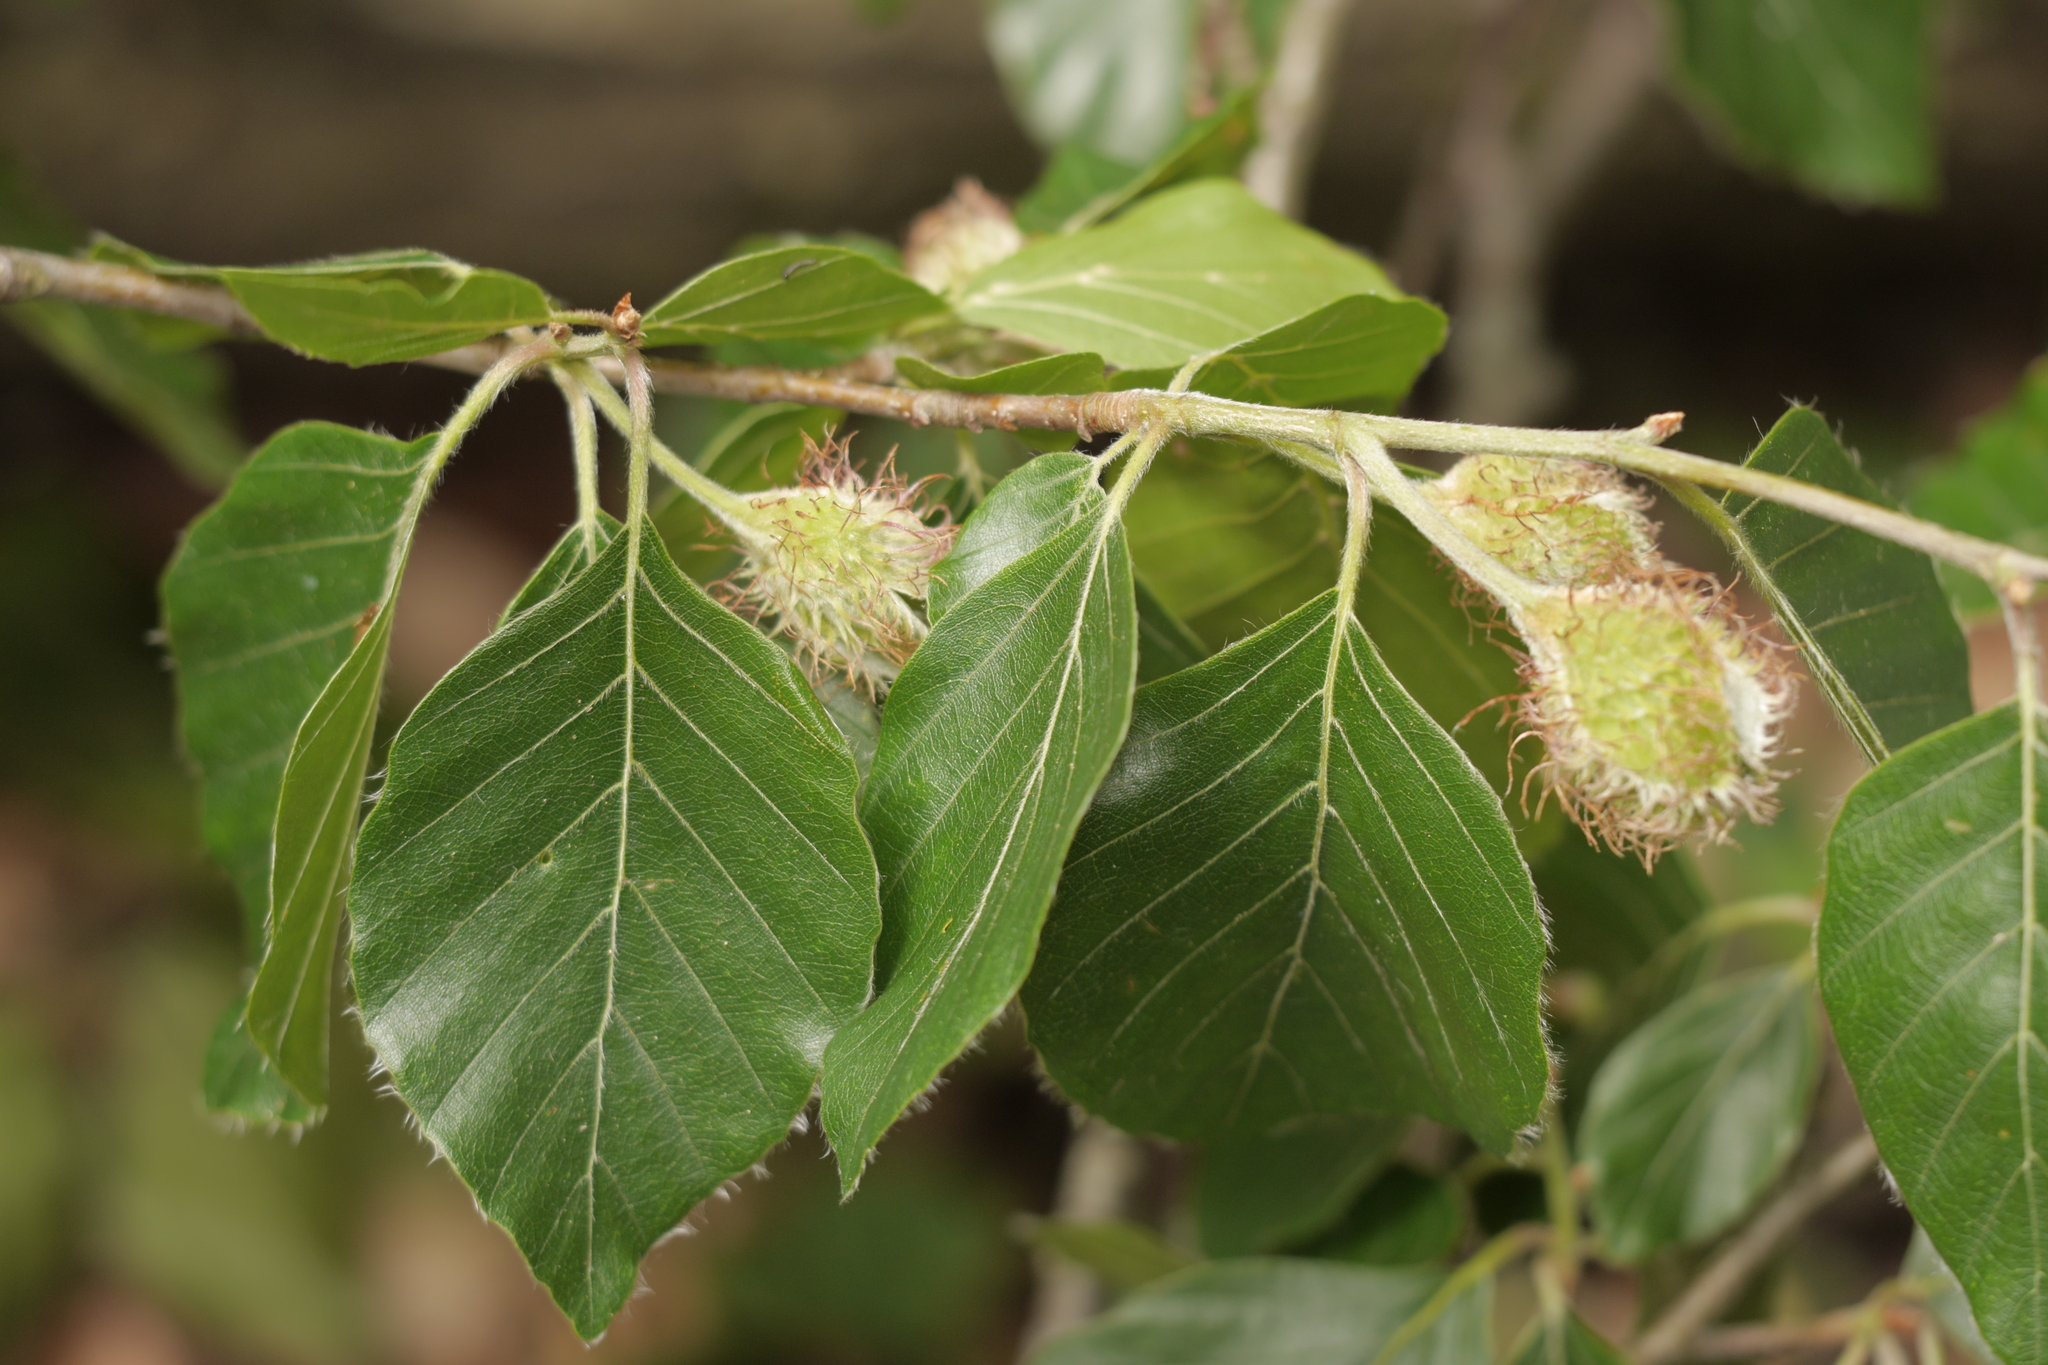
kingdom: Plantae
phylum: Tracheophyta
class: Magnoliopsida
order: Fagales
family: Fagaceae
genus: Fagus
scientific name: Fagus sylvatica
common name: Beech
